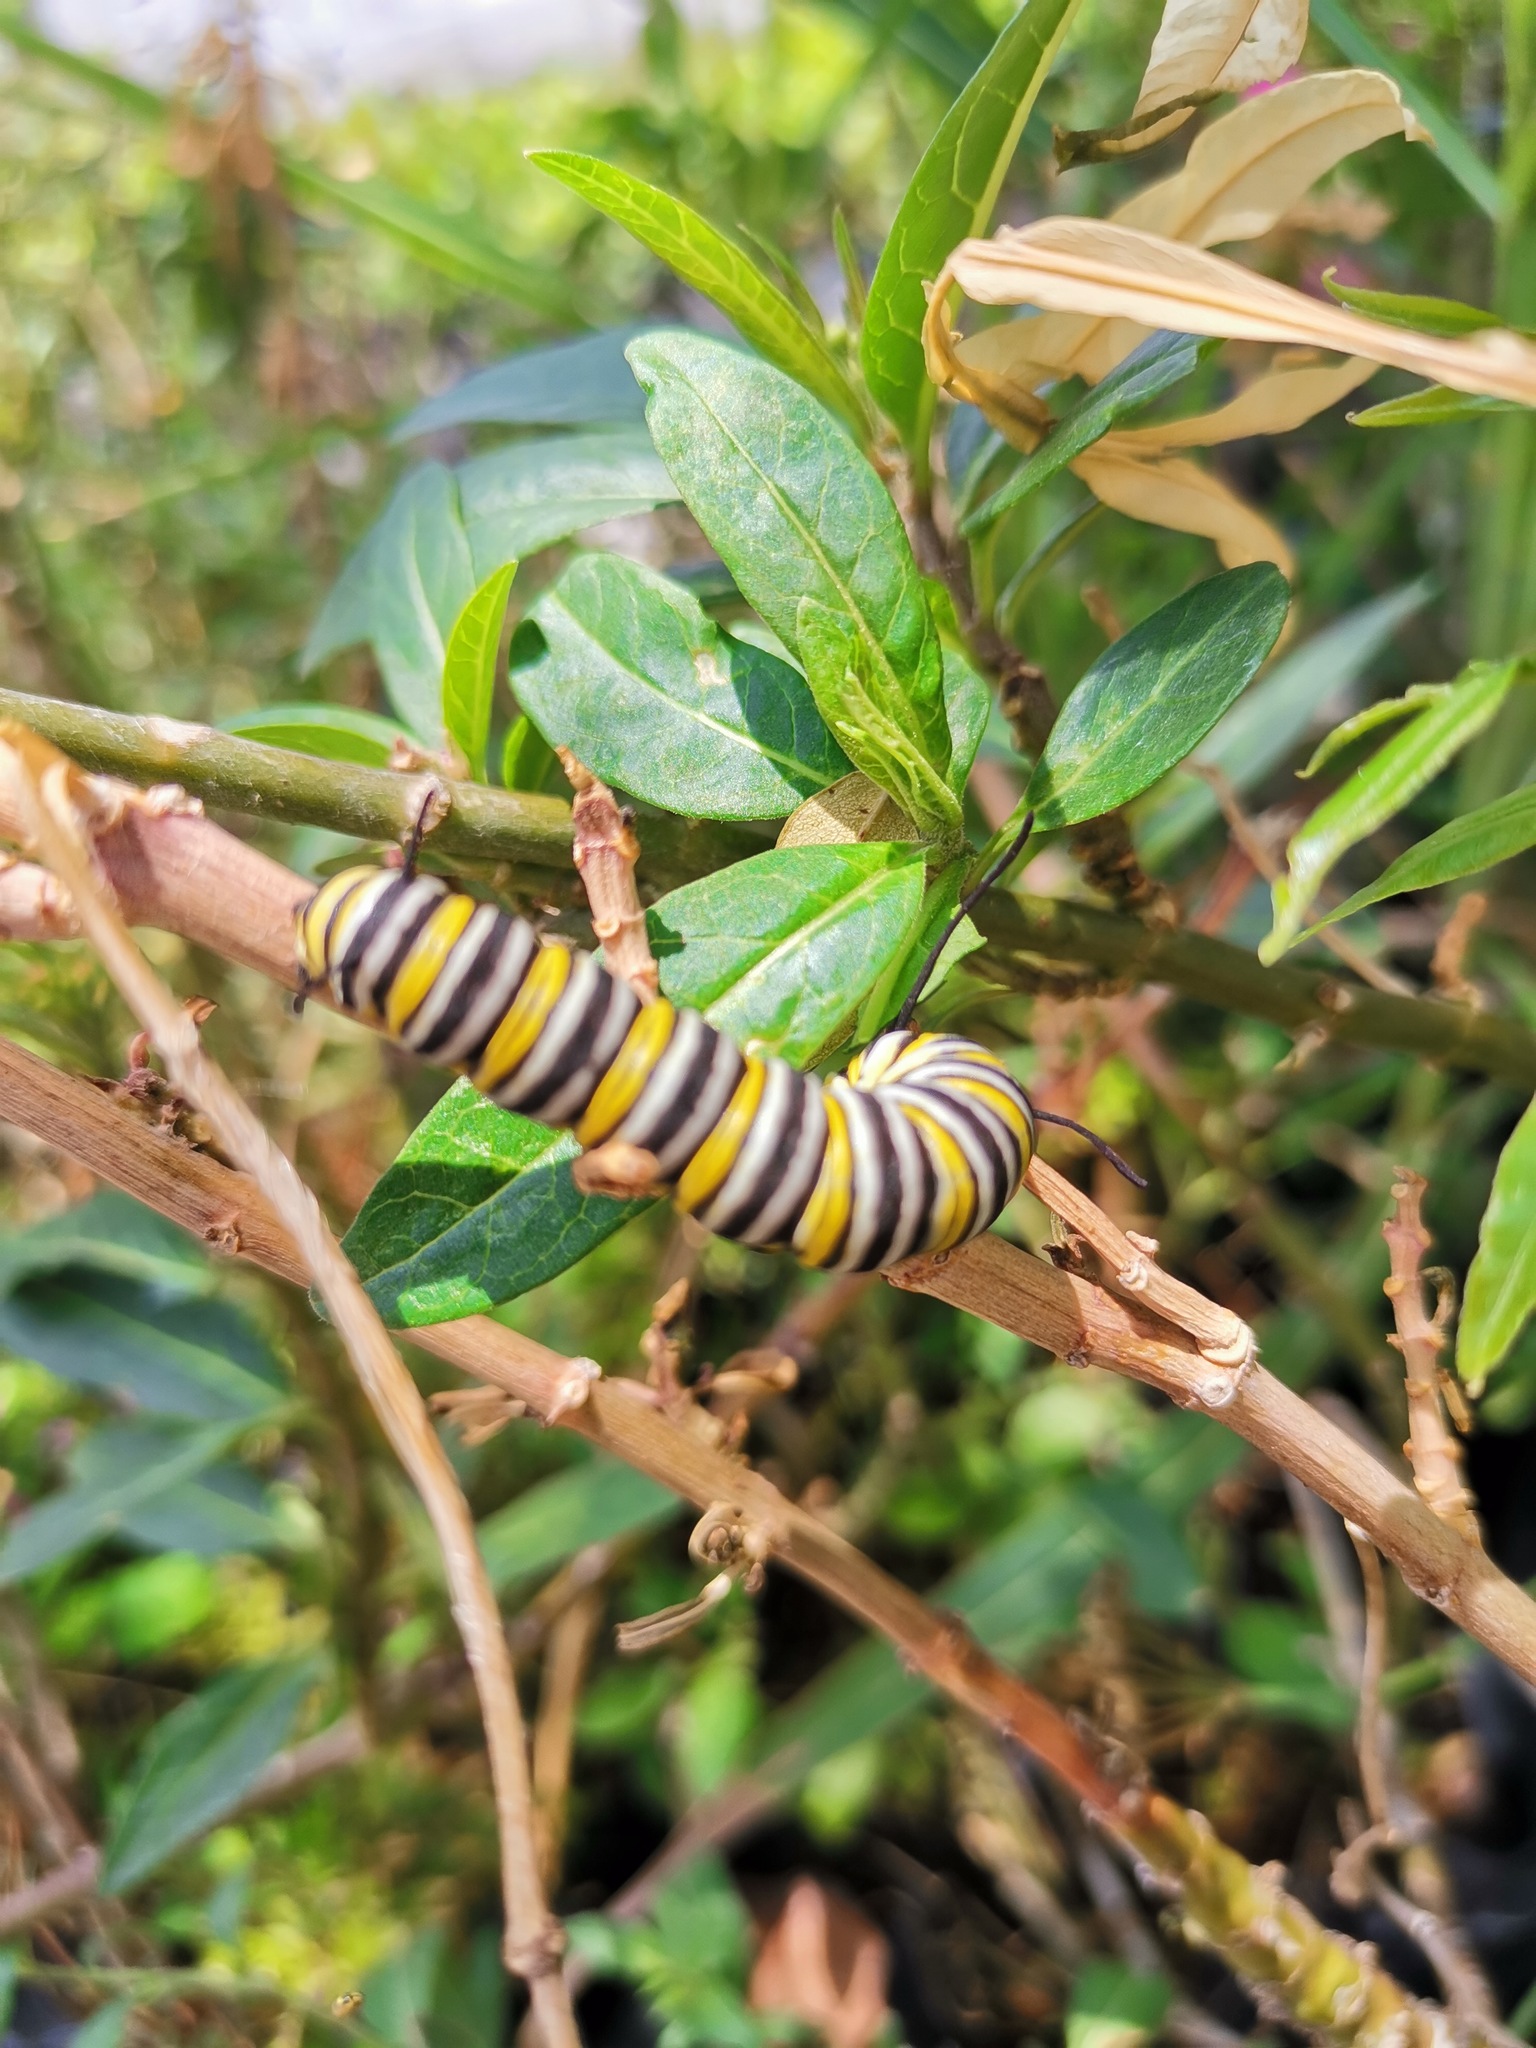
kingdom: Animalia
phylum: Arthropoda
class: Insecta
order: Lepidoptera
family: Nymphalidae
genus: Danaus
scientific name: Danaus plexippus
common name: Monarch
